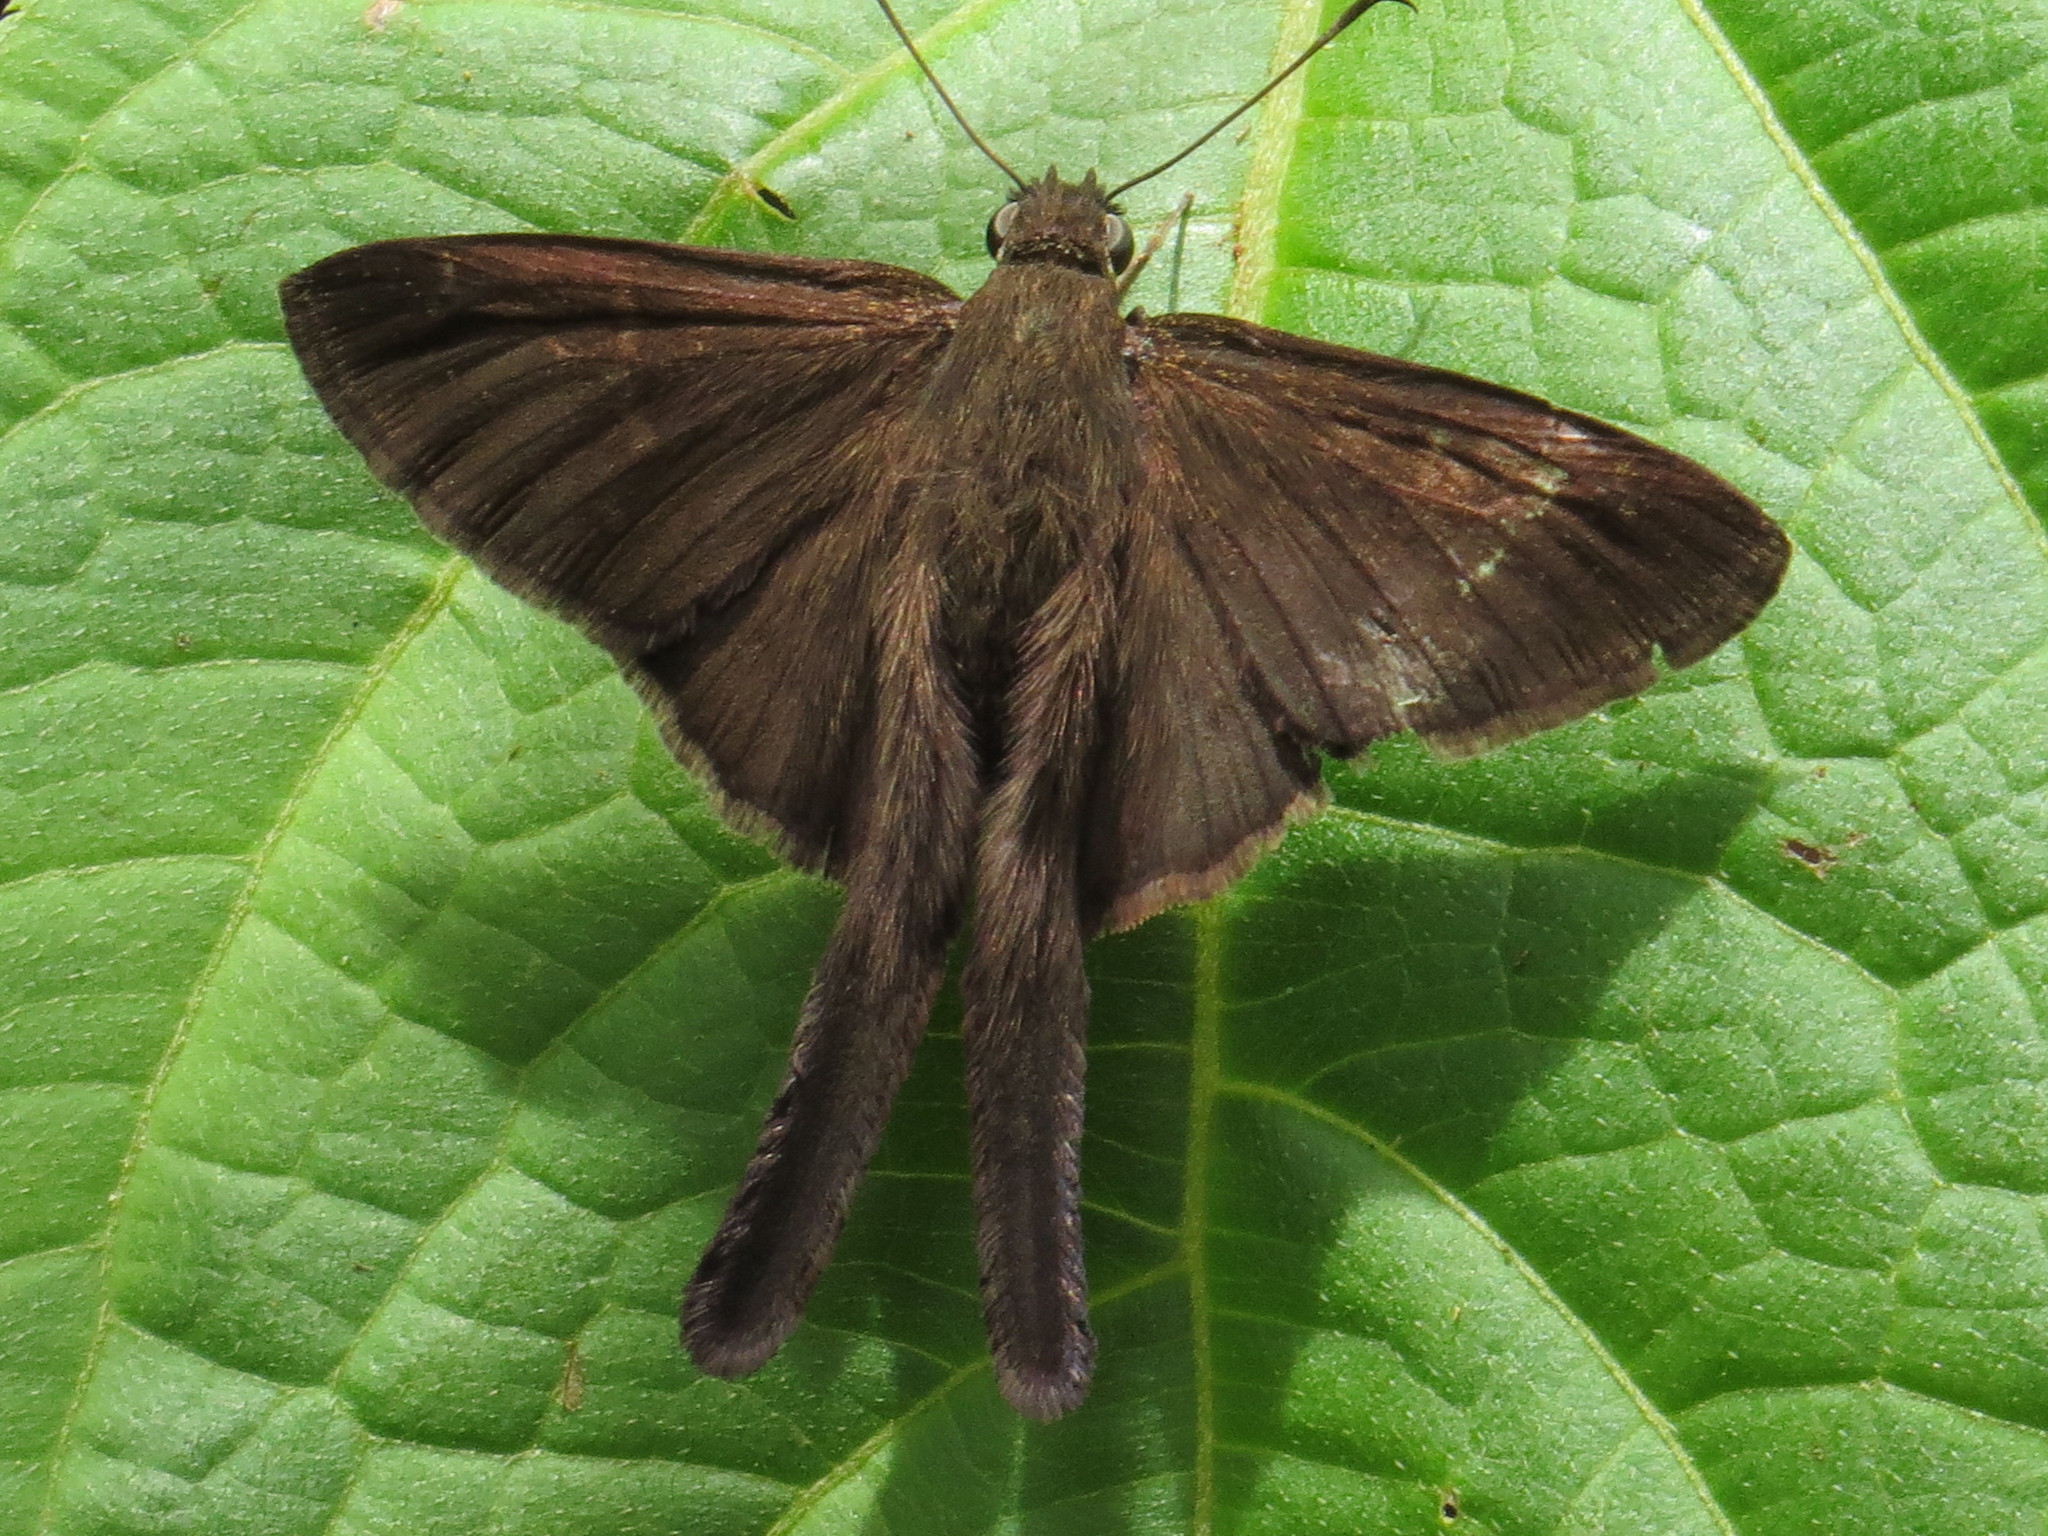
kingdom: Animalia
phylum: Arthropoda
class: Insecta
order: Lepidoptera
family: Hesperiidae
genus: Urbanus
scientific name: Urbanus procne
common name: Brown longtail
